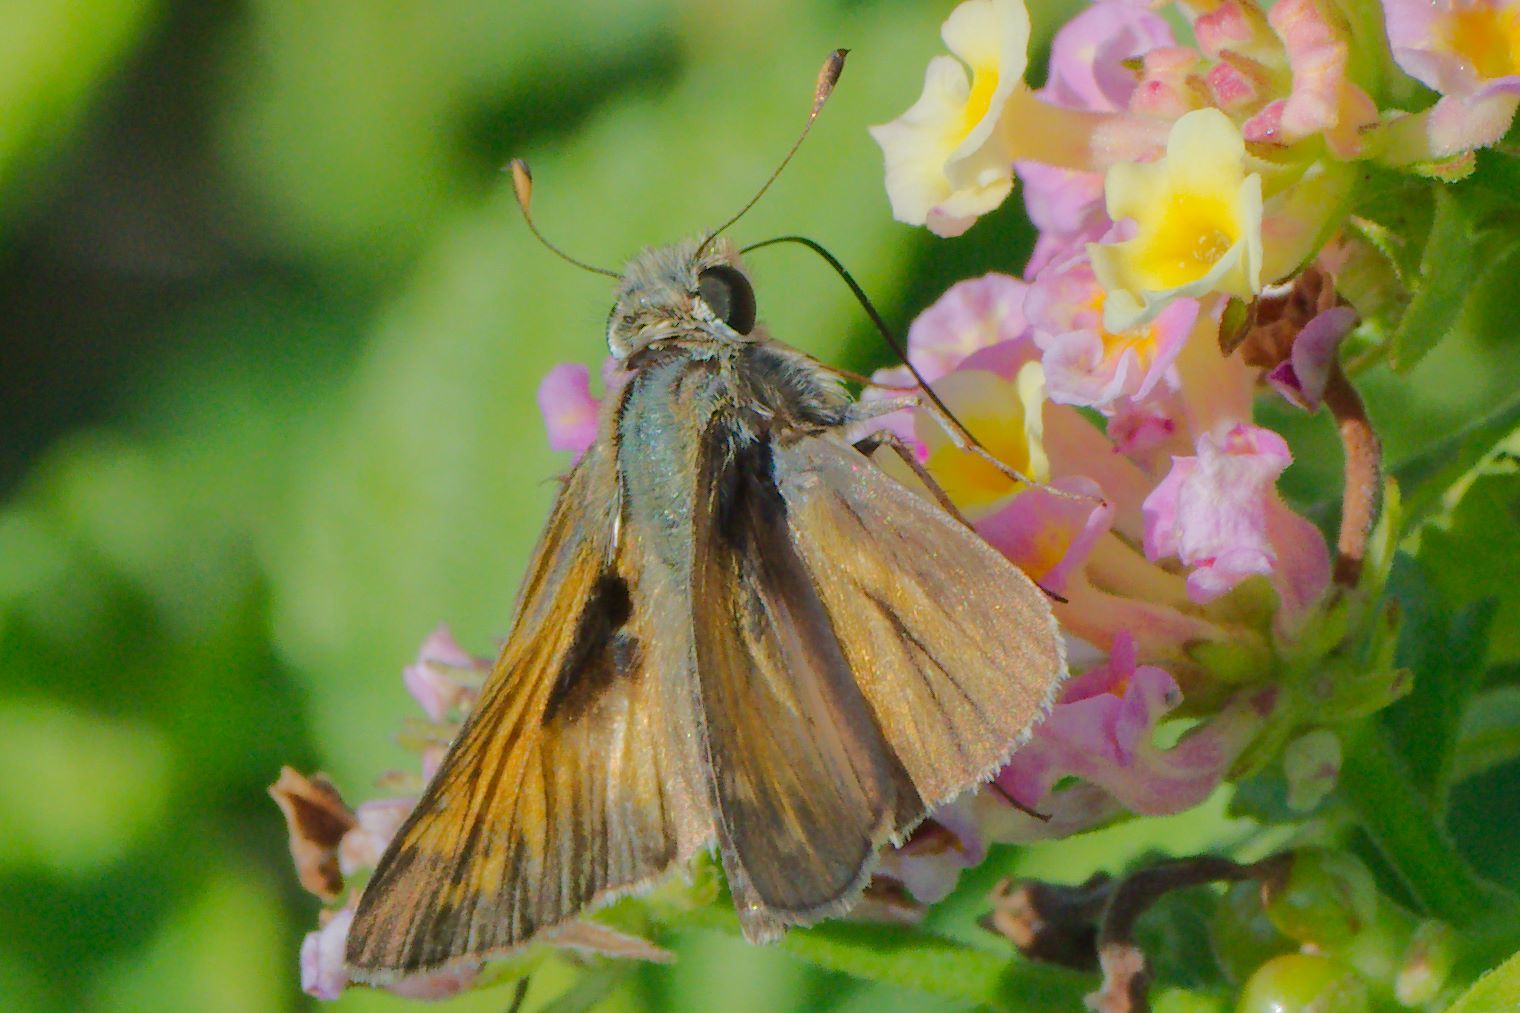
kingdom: Animalia
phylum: Arthropoda
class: Insecta
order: Lepidoptera
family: Hesperiidae
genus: Atalopedes
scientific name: Atalopedes
